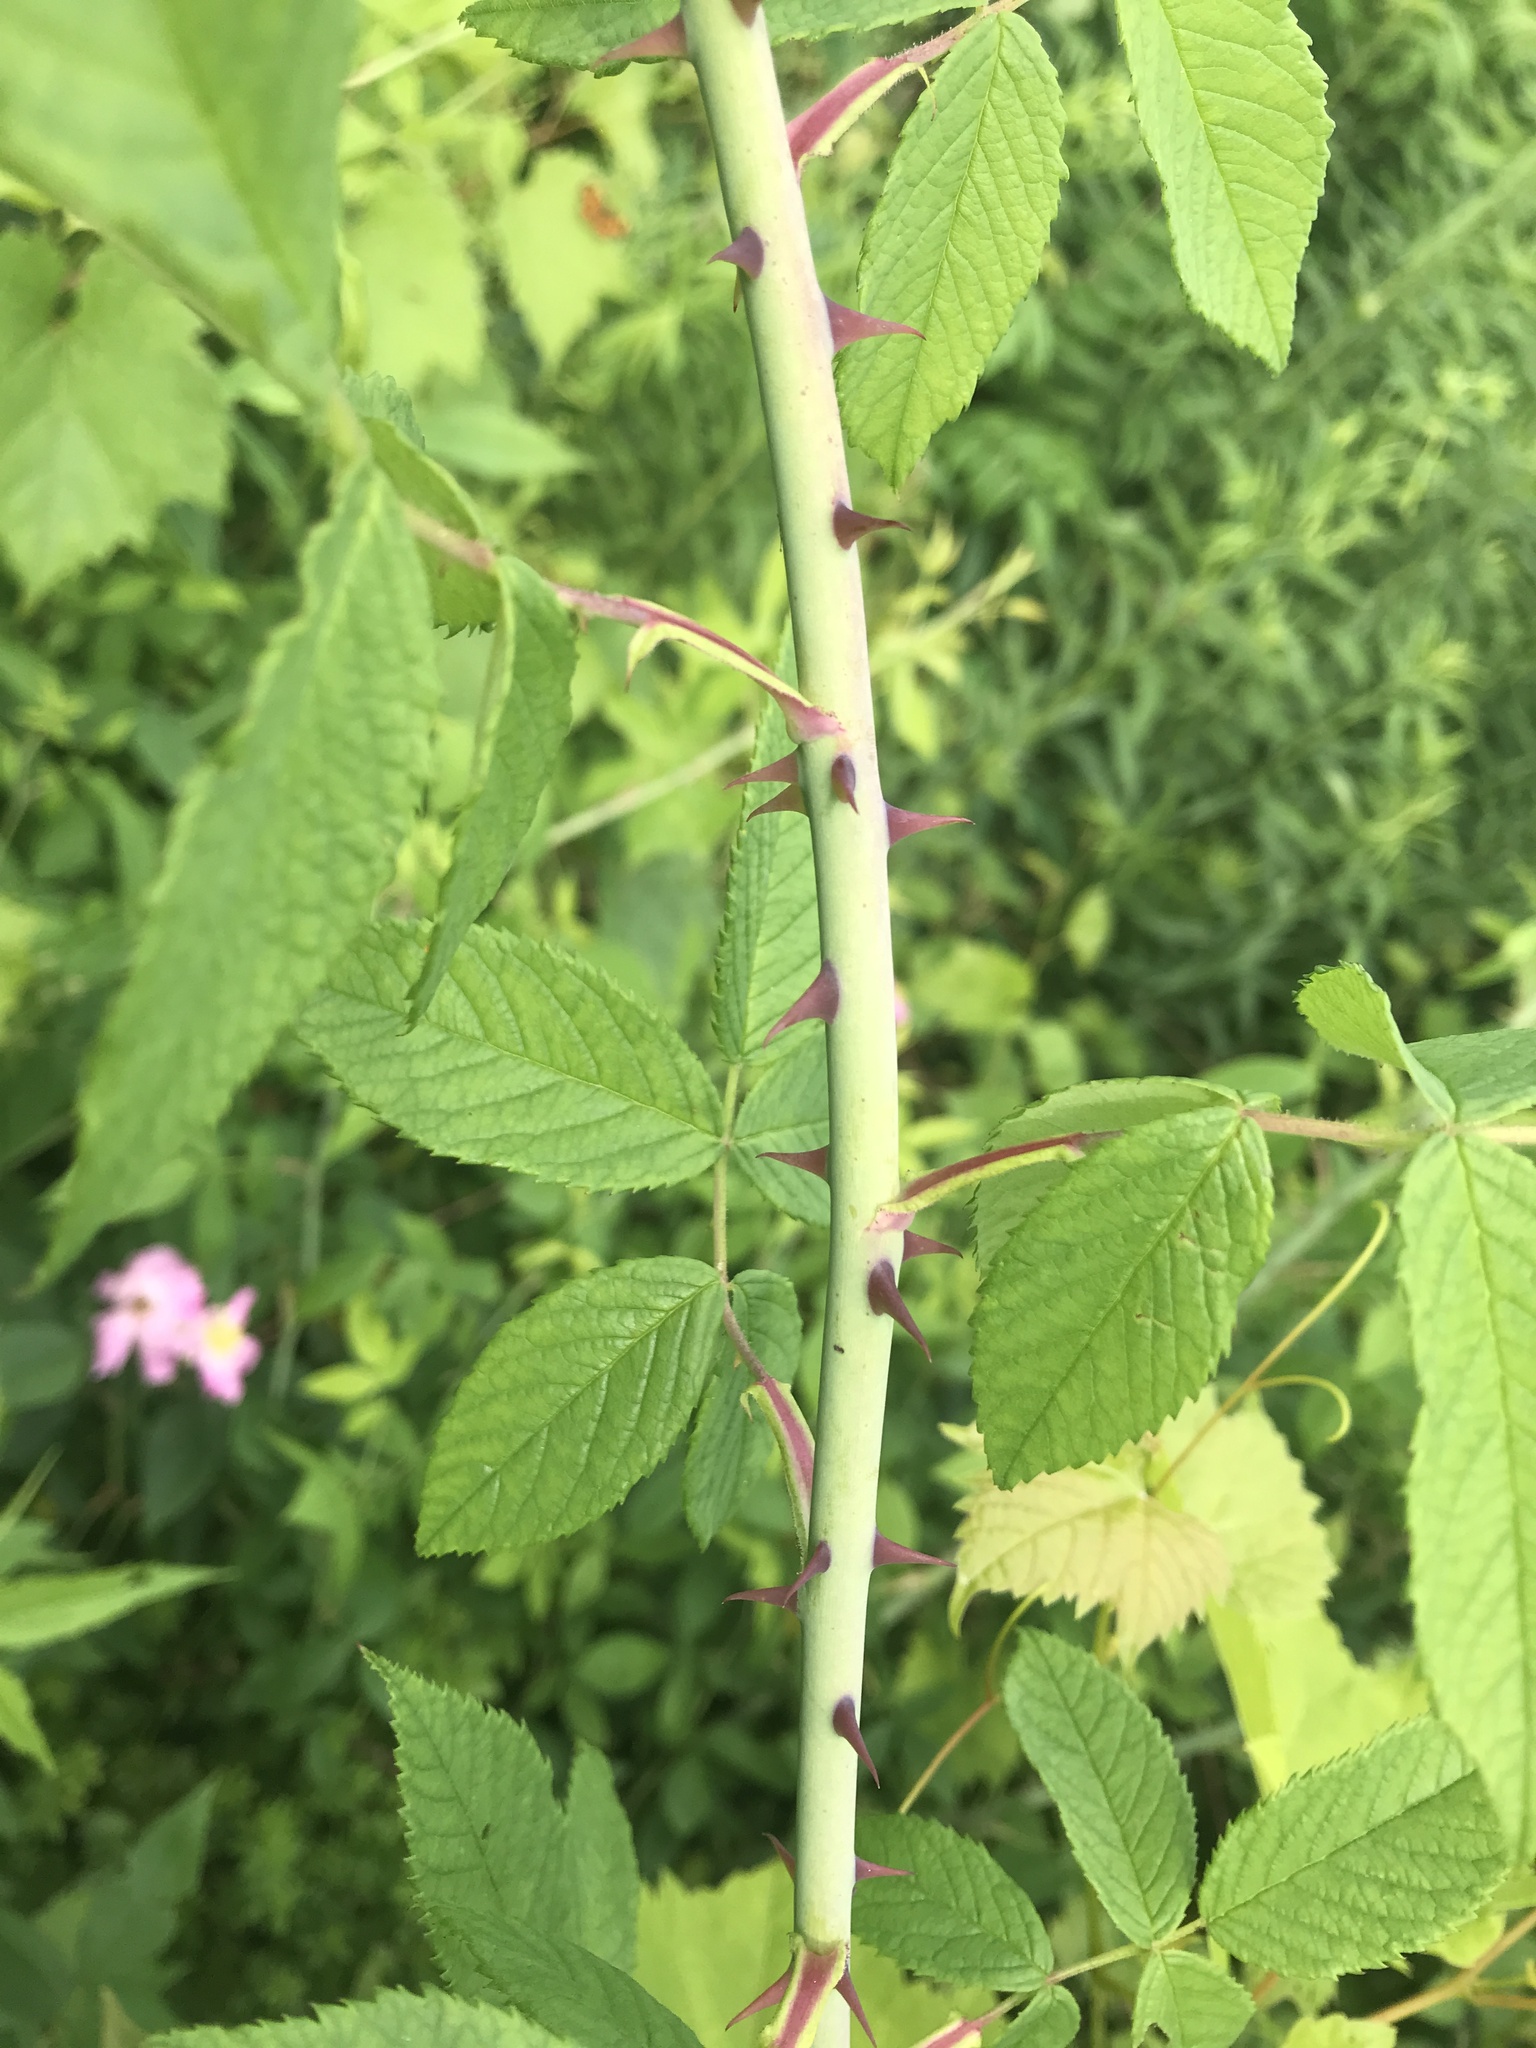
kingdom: Plantae
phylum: Tracheophyta
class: Magnoliopsida
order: Rosales
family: Rosaceae
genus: Rosa
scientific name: Rosa setigera
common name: Prairie rose
